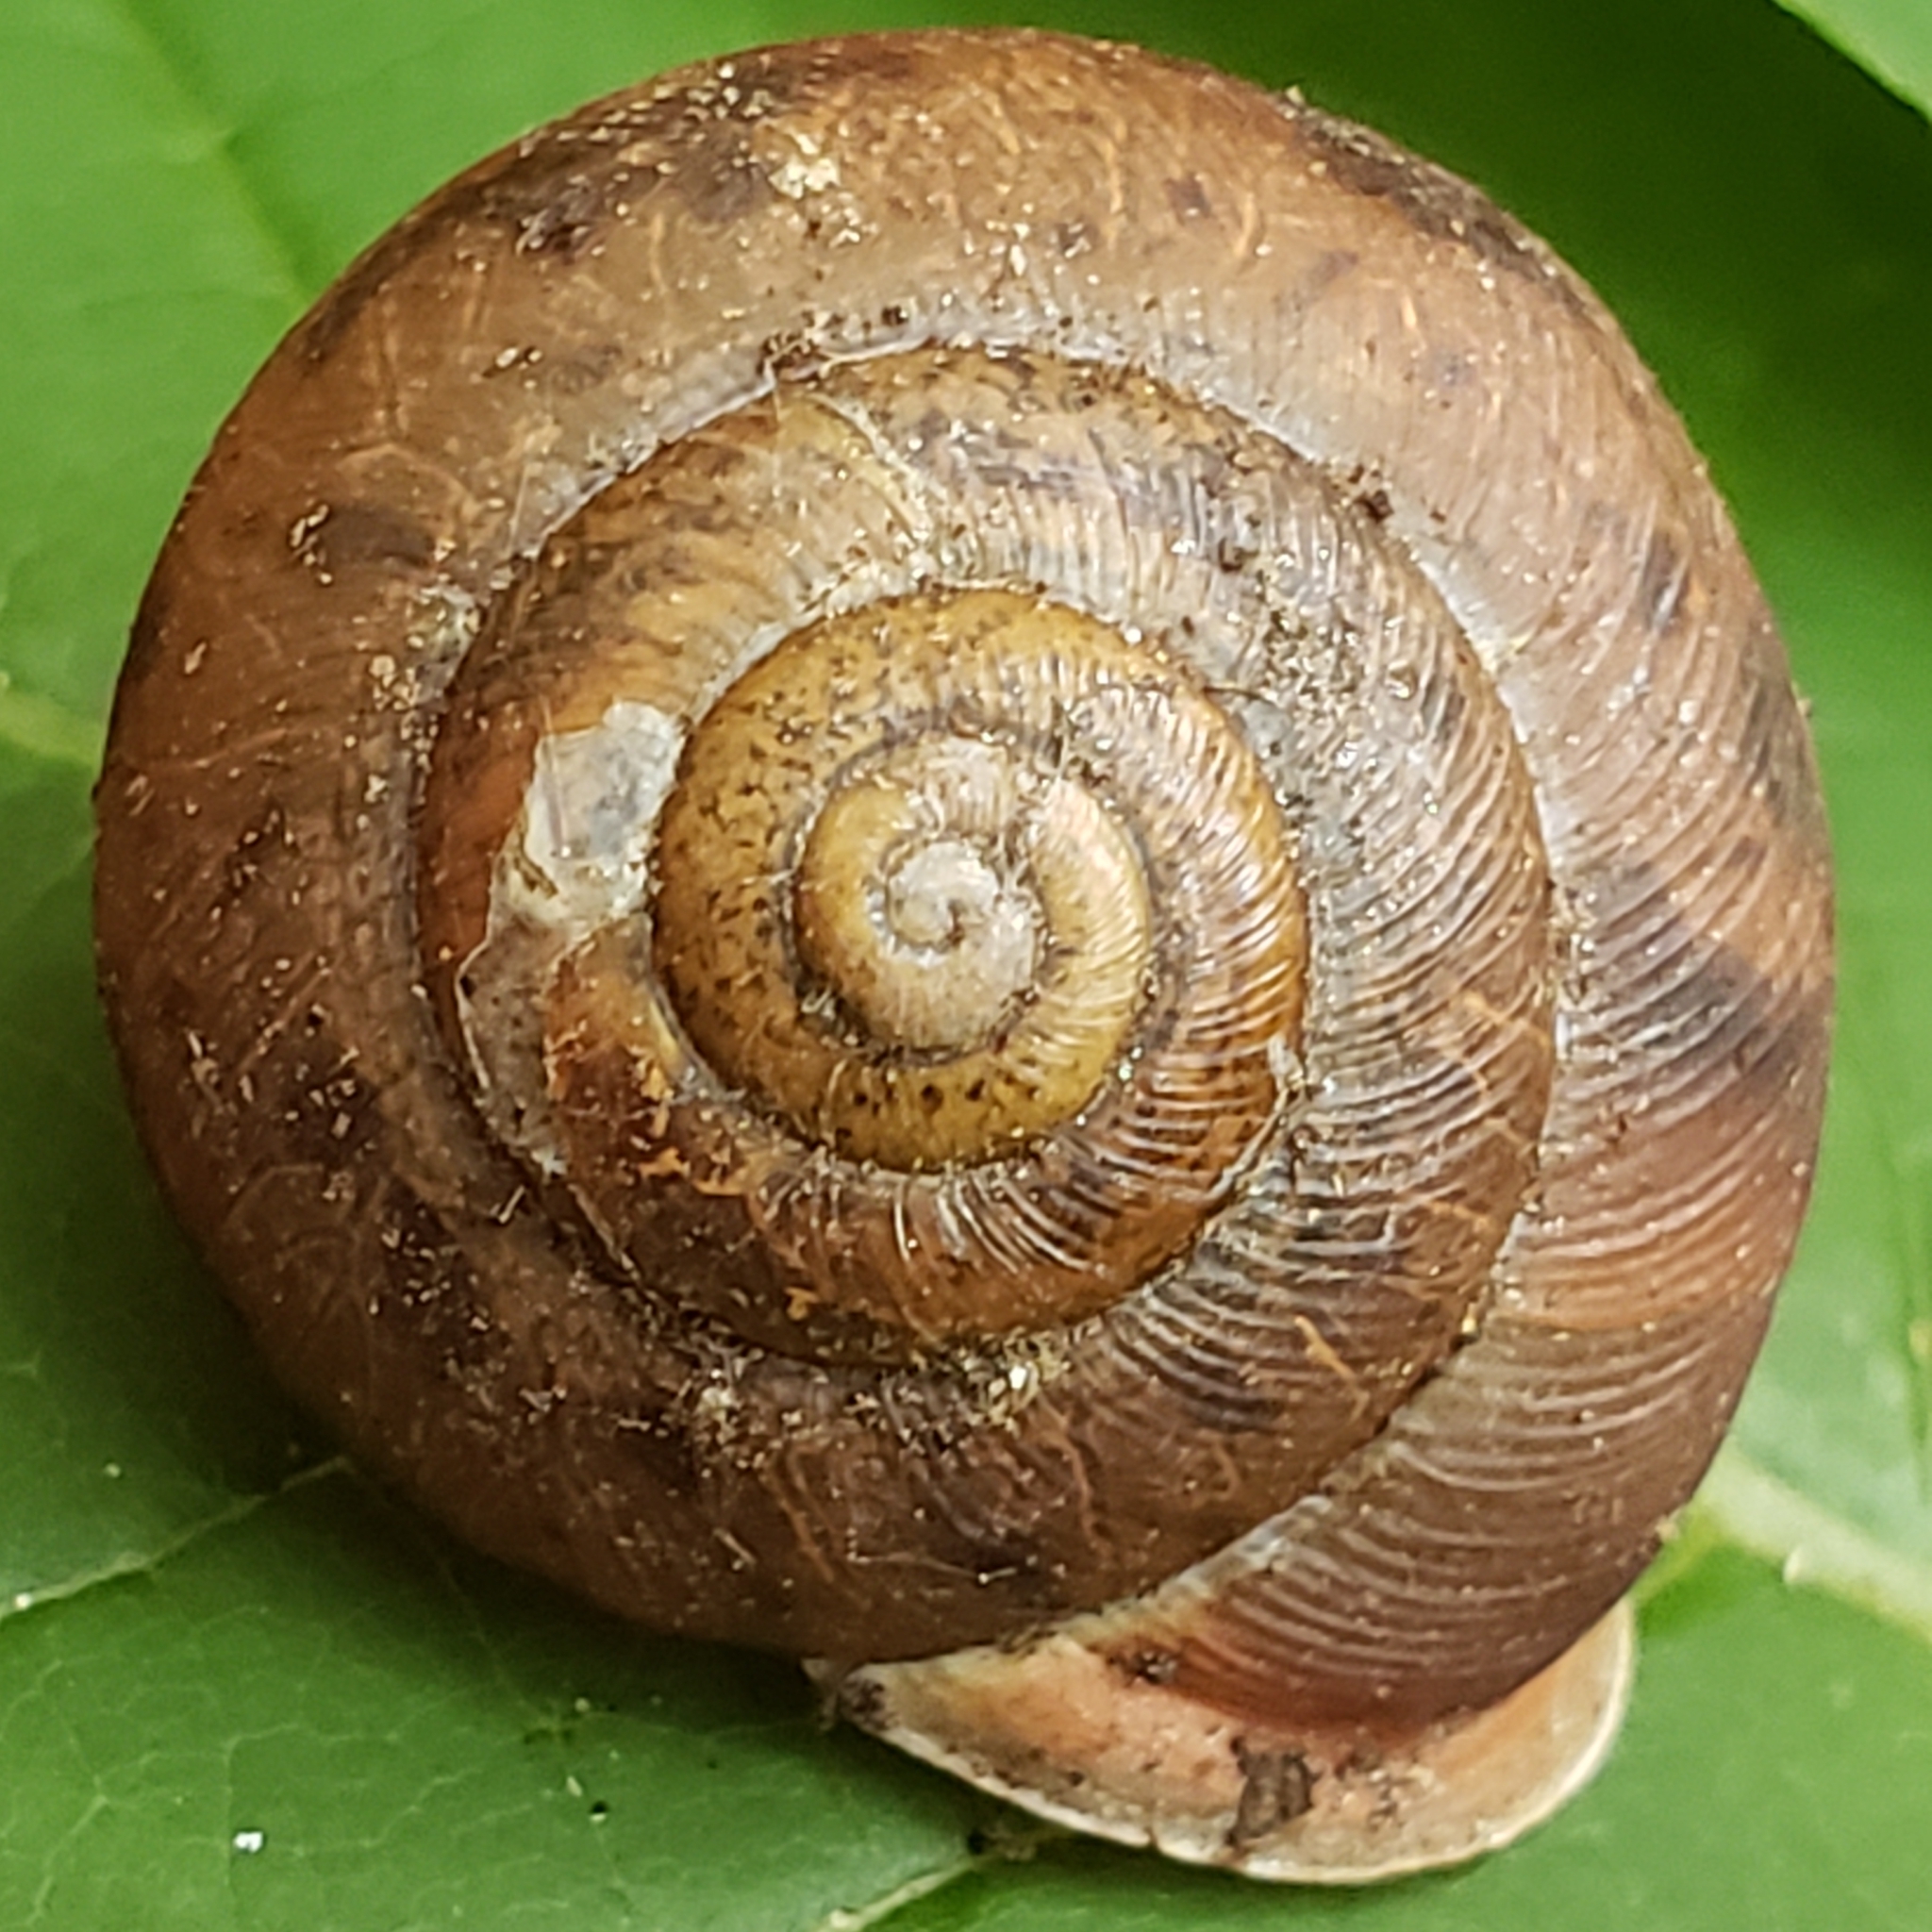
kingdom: Animalia
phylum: Mollusca
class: Gastropoda
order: Stylommatophora
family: Polygyridae
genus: Mesodon
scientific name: Mesodon clausus
